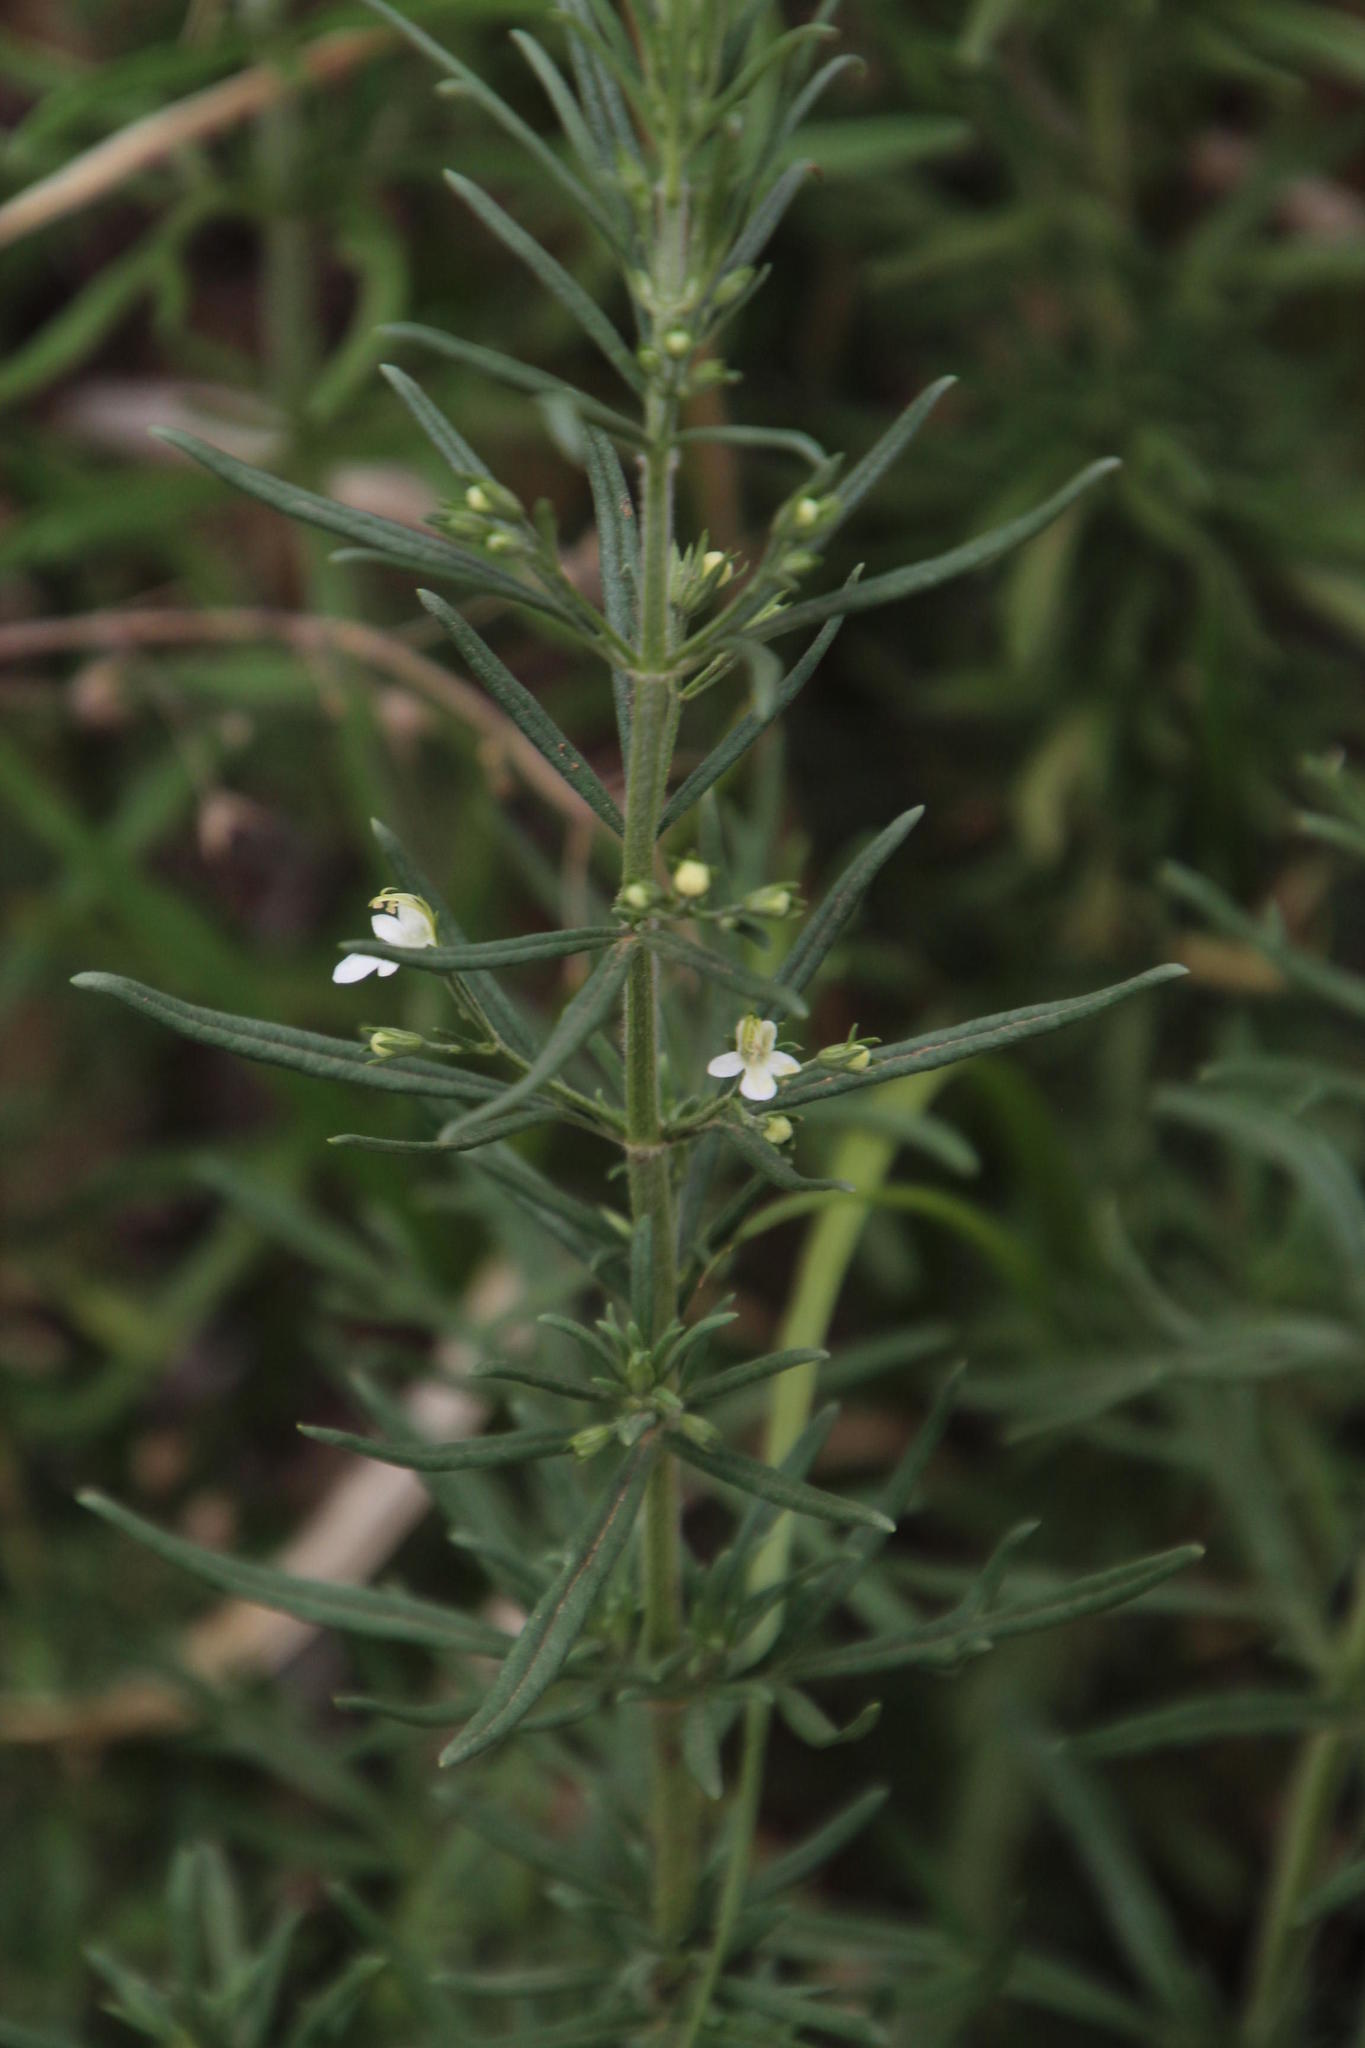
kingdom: Plantae
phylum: Tracheophyta
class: Magnoliopsida
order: Lamiales
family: Lamiaceae
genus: Teucrium
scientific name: Teucrium trifidum
